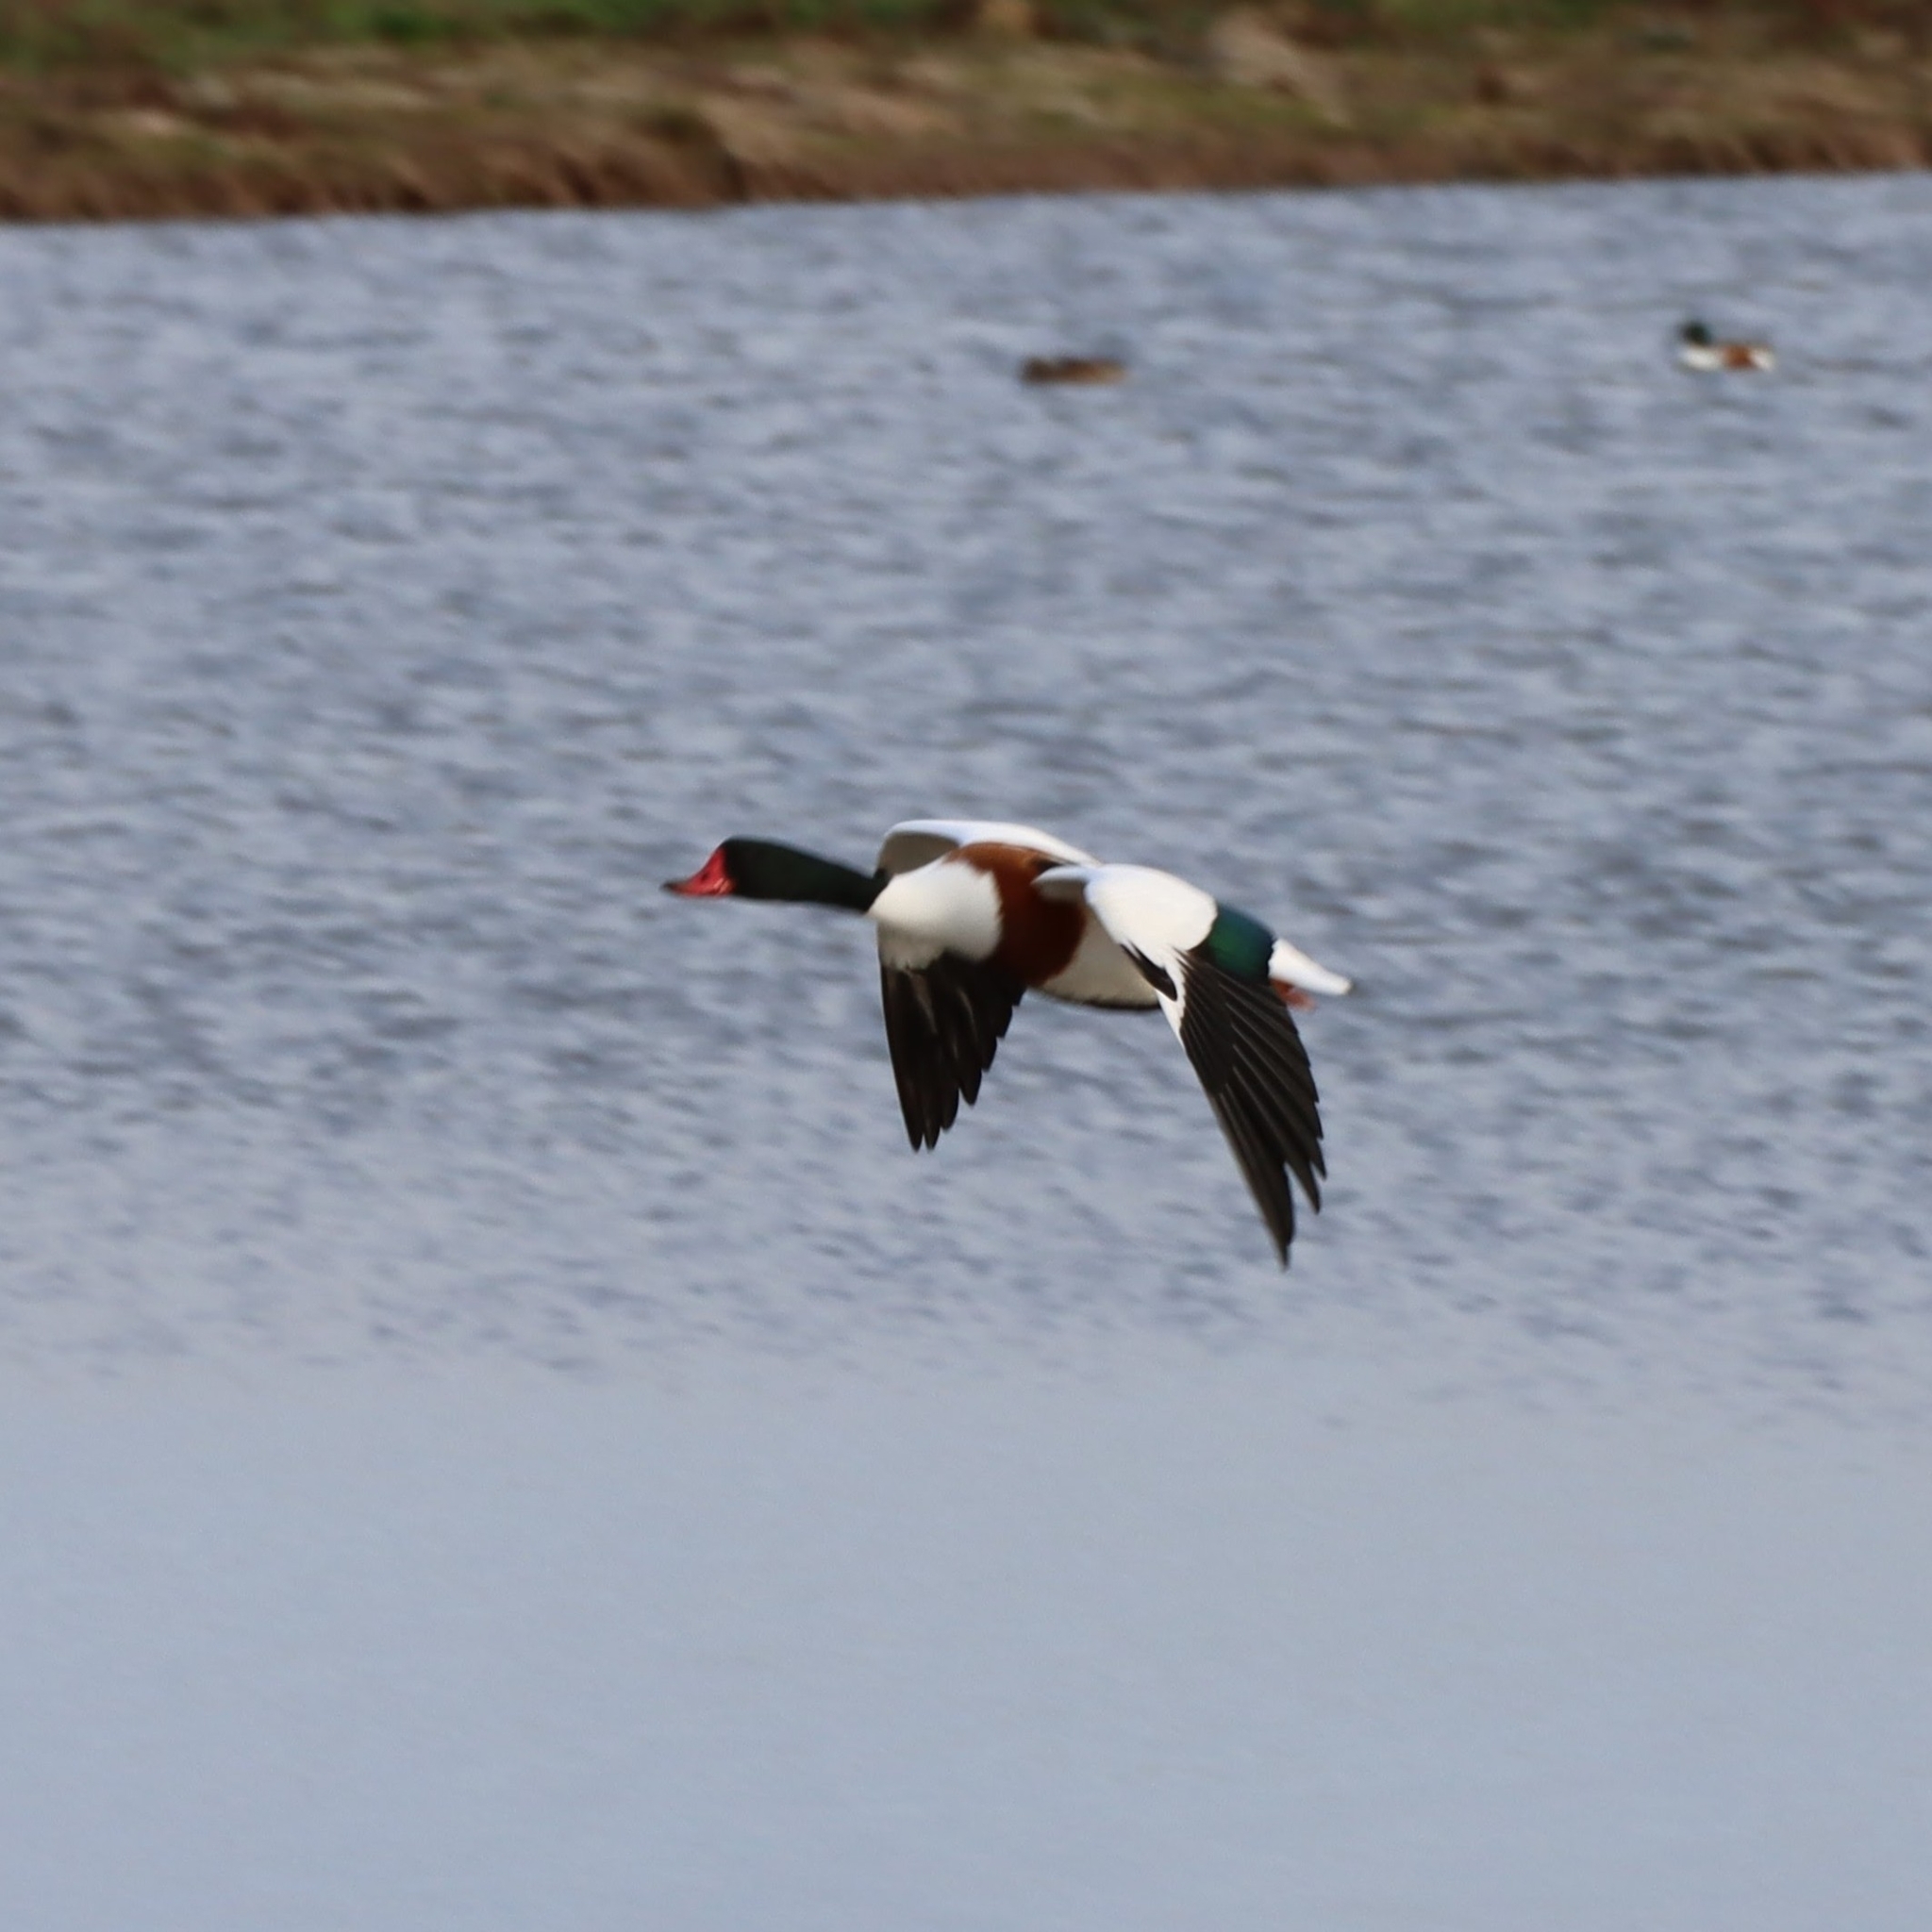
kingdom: Animalia
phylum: Chordata
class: Aves
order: Anseriformes
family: Anatidae
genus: Tadorna
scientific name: Tadorna tadorna
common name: Common shelduck
